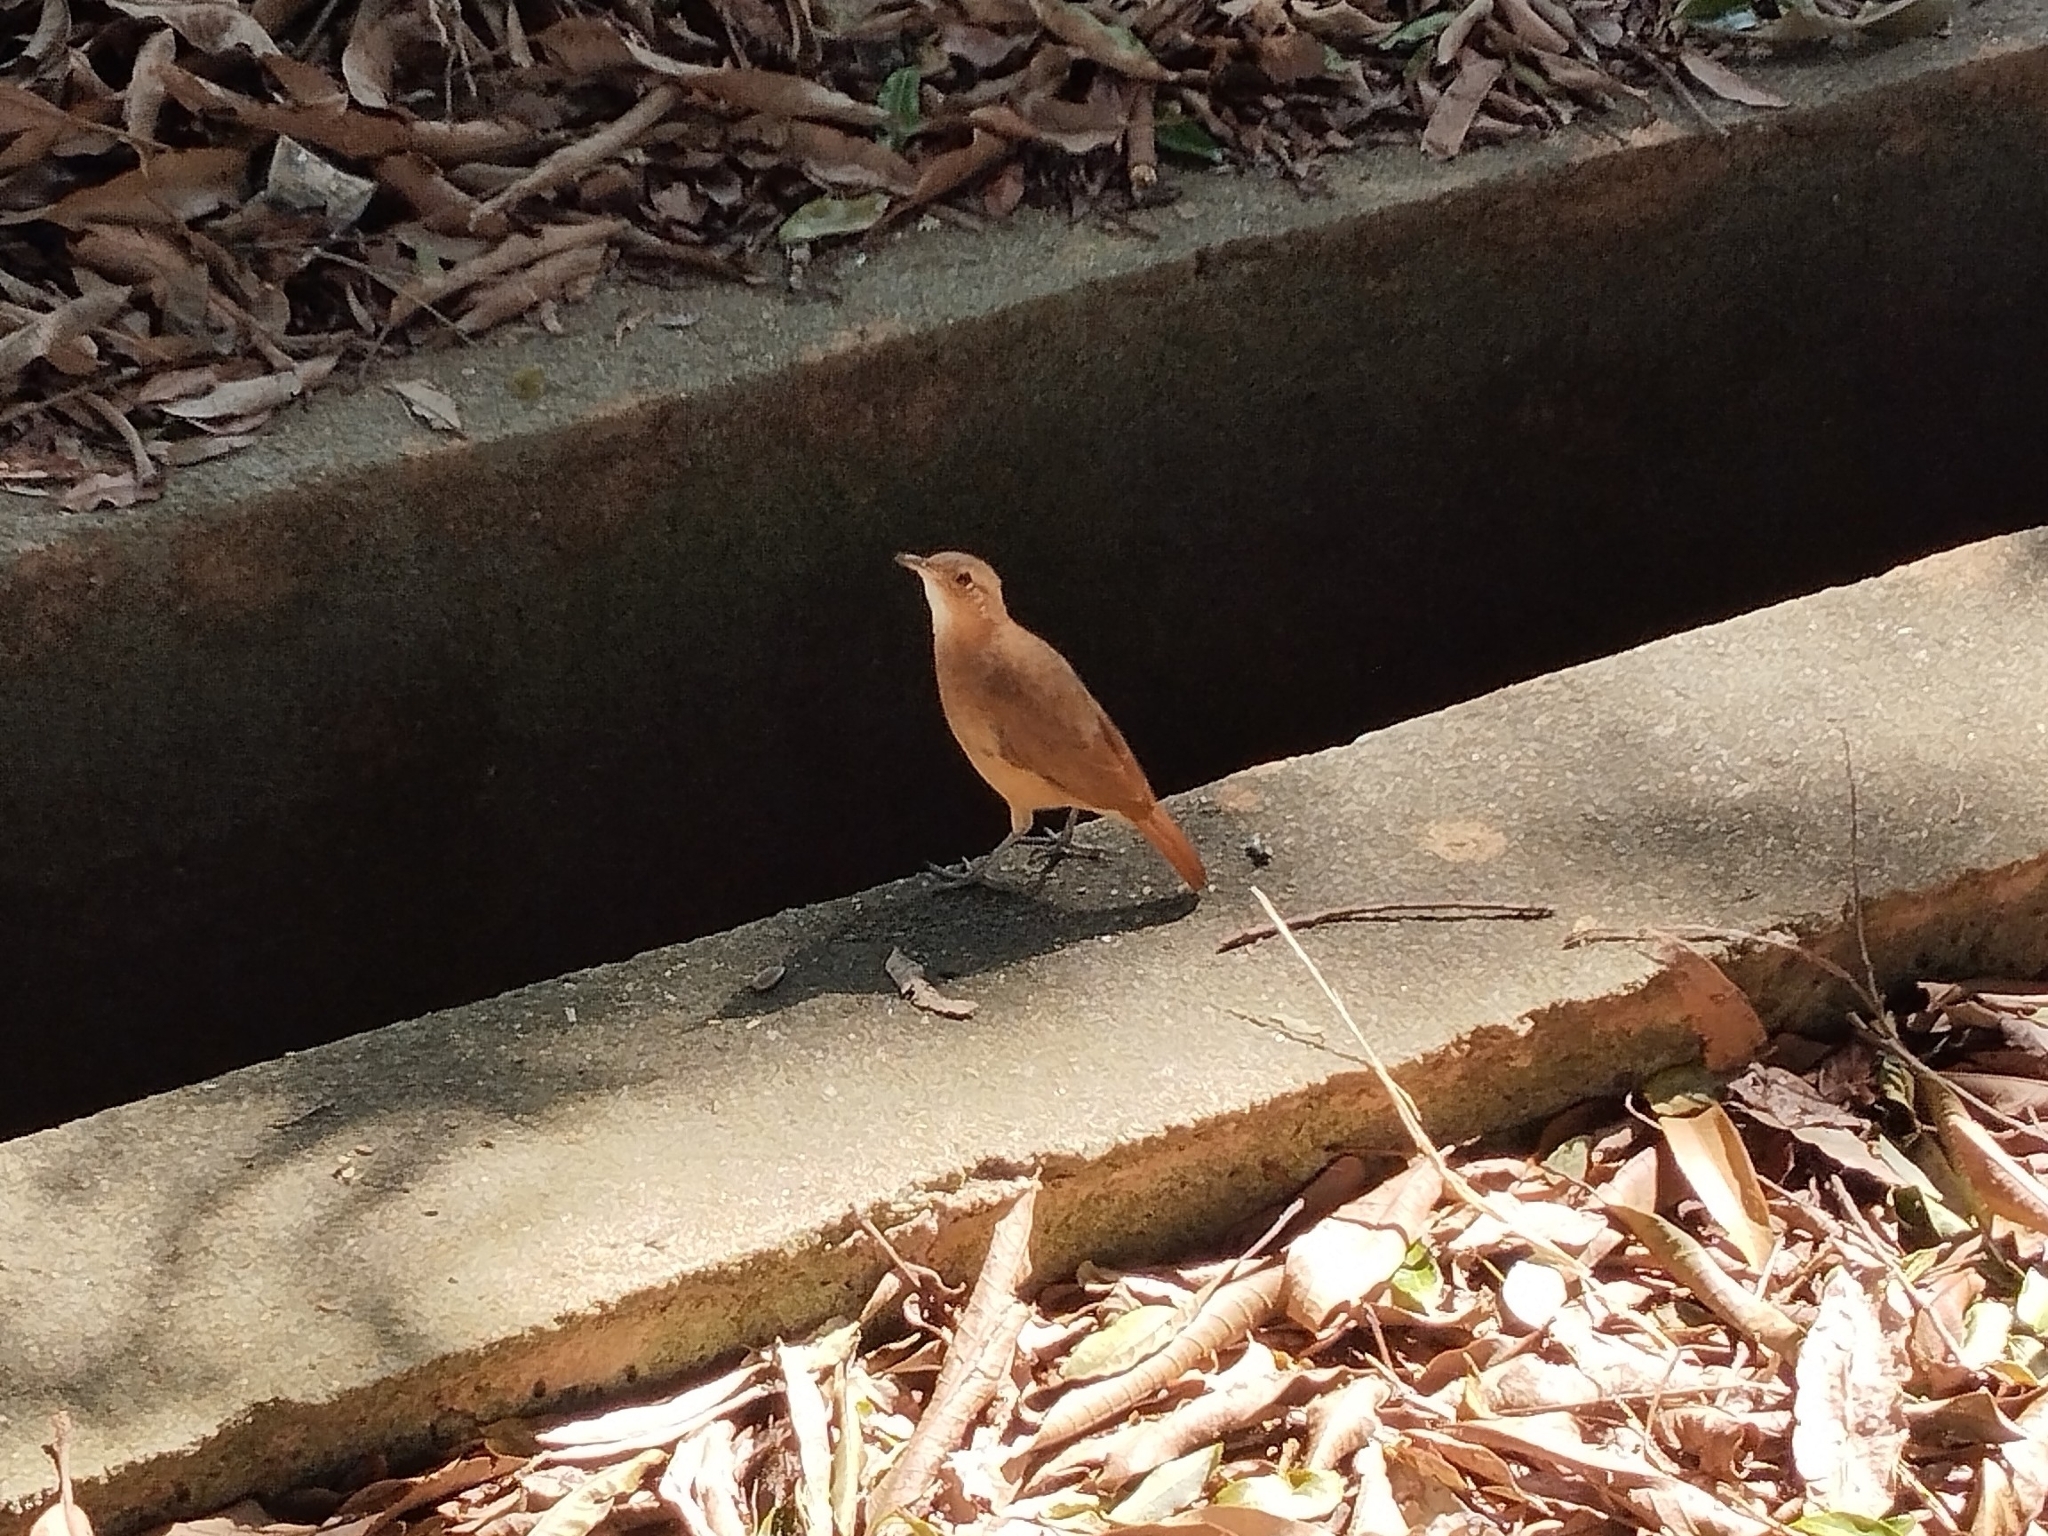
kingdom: Animalia
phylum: Chordata
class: Aves
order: Passeriformes
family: Furnariidae
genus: Furnarius
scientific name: Furnarius rufus
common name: Rufous hornero
